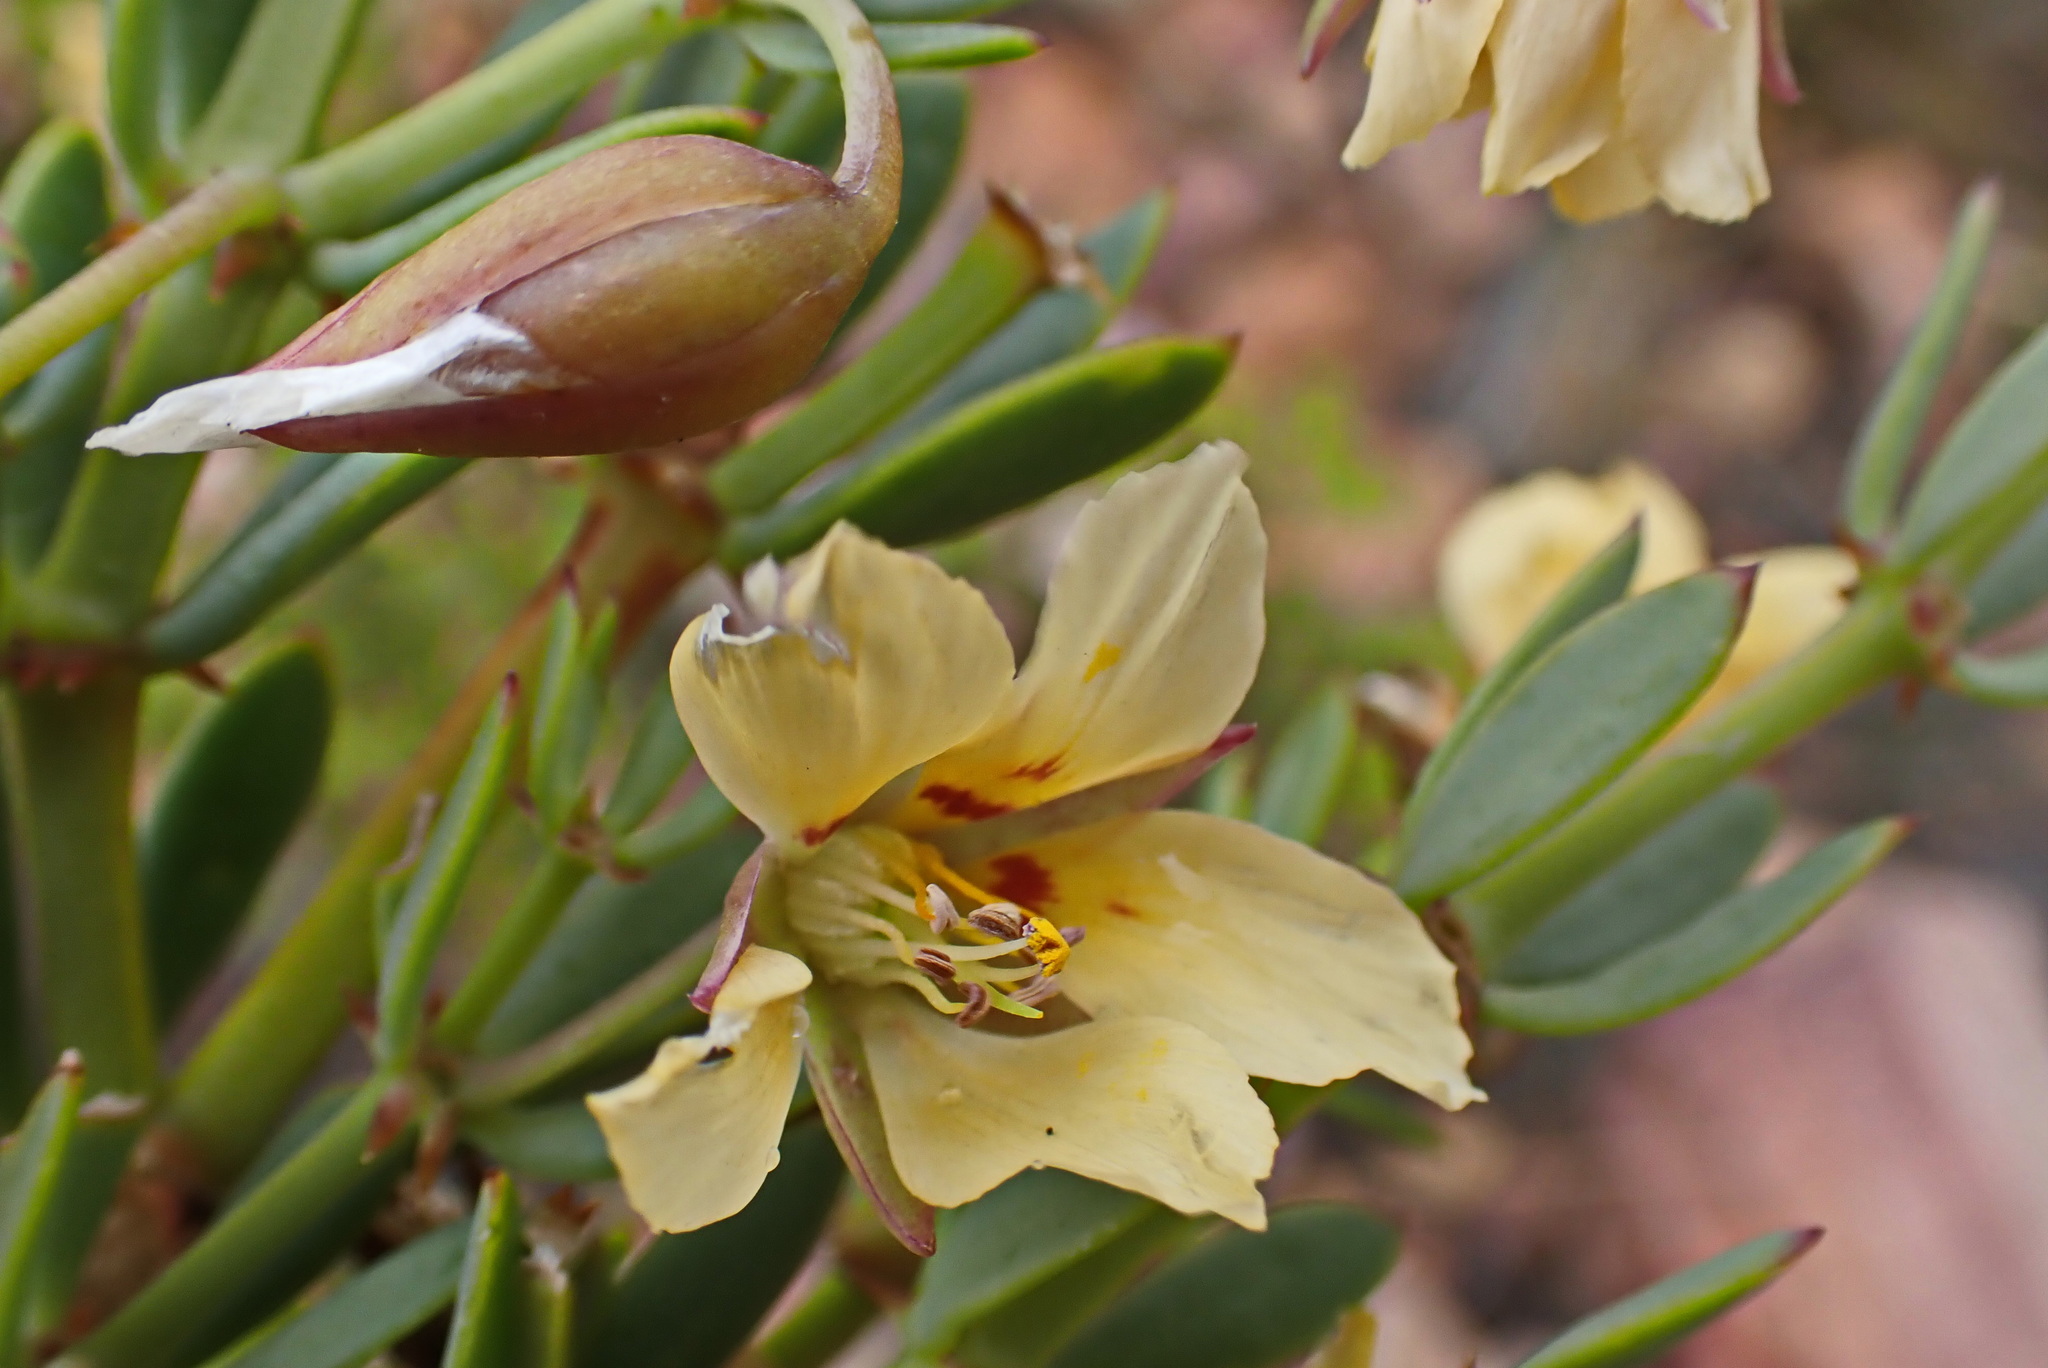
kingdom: Plantae
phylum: Tracheophyta
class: Magnoliopsida
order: Zygophyllales
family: Zygophyllaceae
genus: Roepera
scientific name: Roepera fulva
